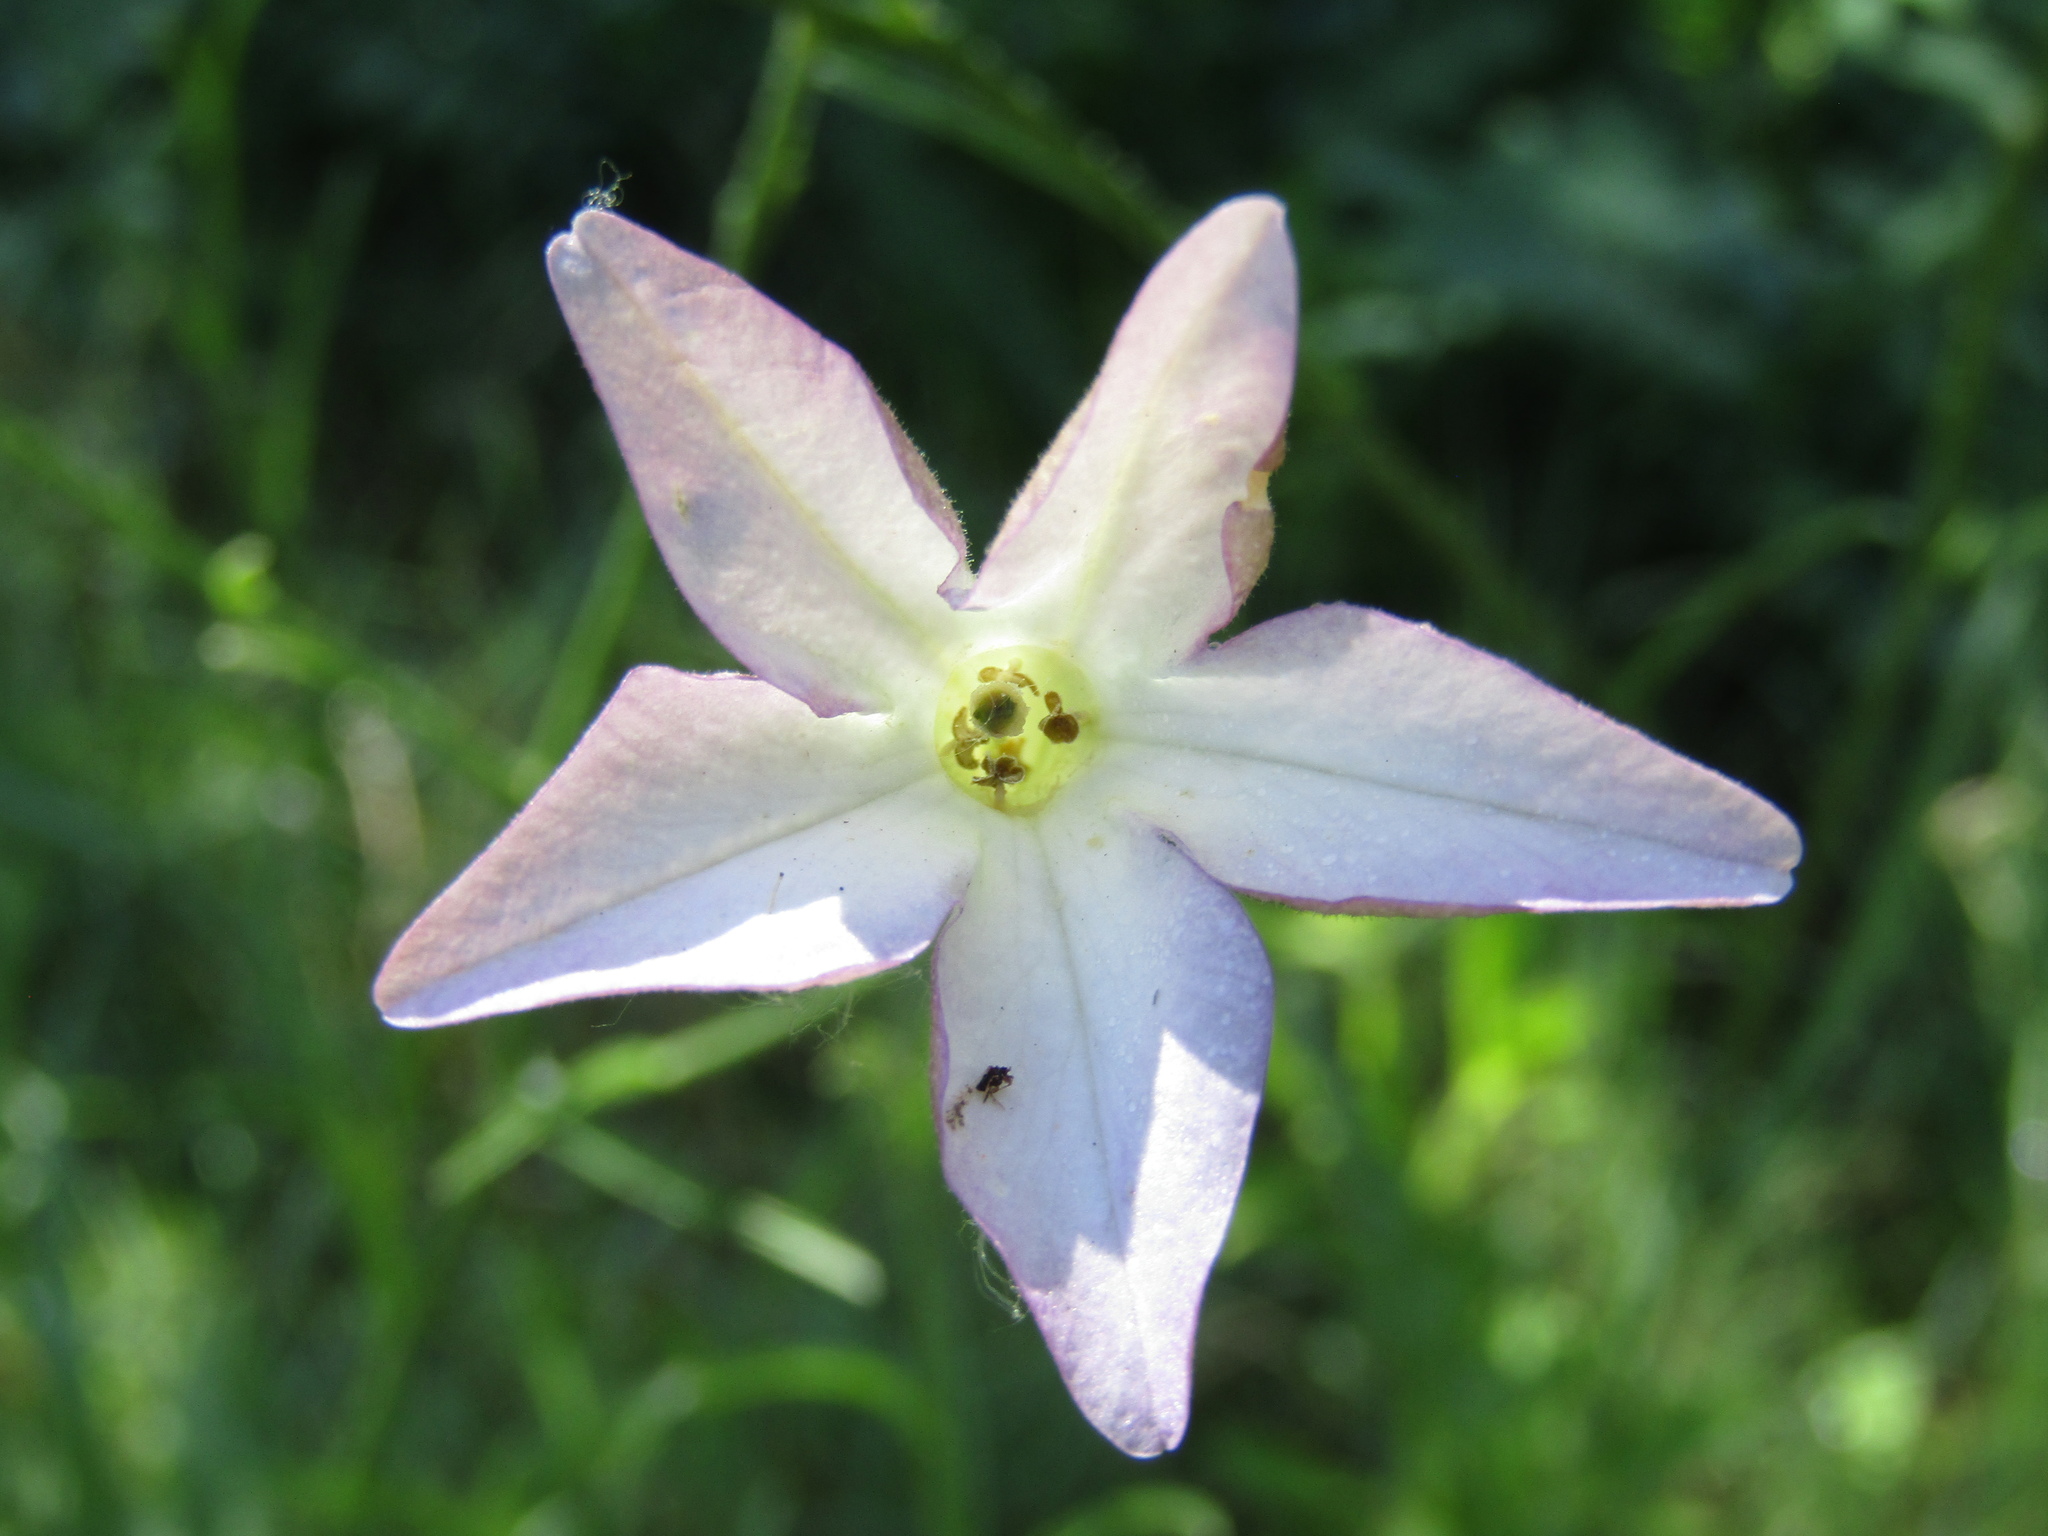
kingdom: Plantae
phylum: Tracheophyta
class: Magnoliopsida
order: Solanales
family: Solanaceae
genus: Nicotiana
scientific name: Nicotiana longiflora
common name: Long-flowered tobacco
